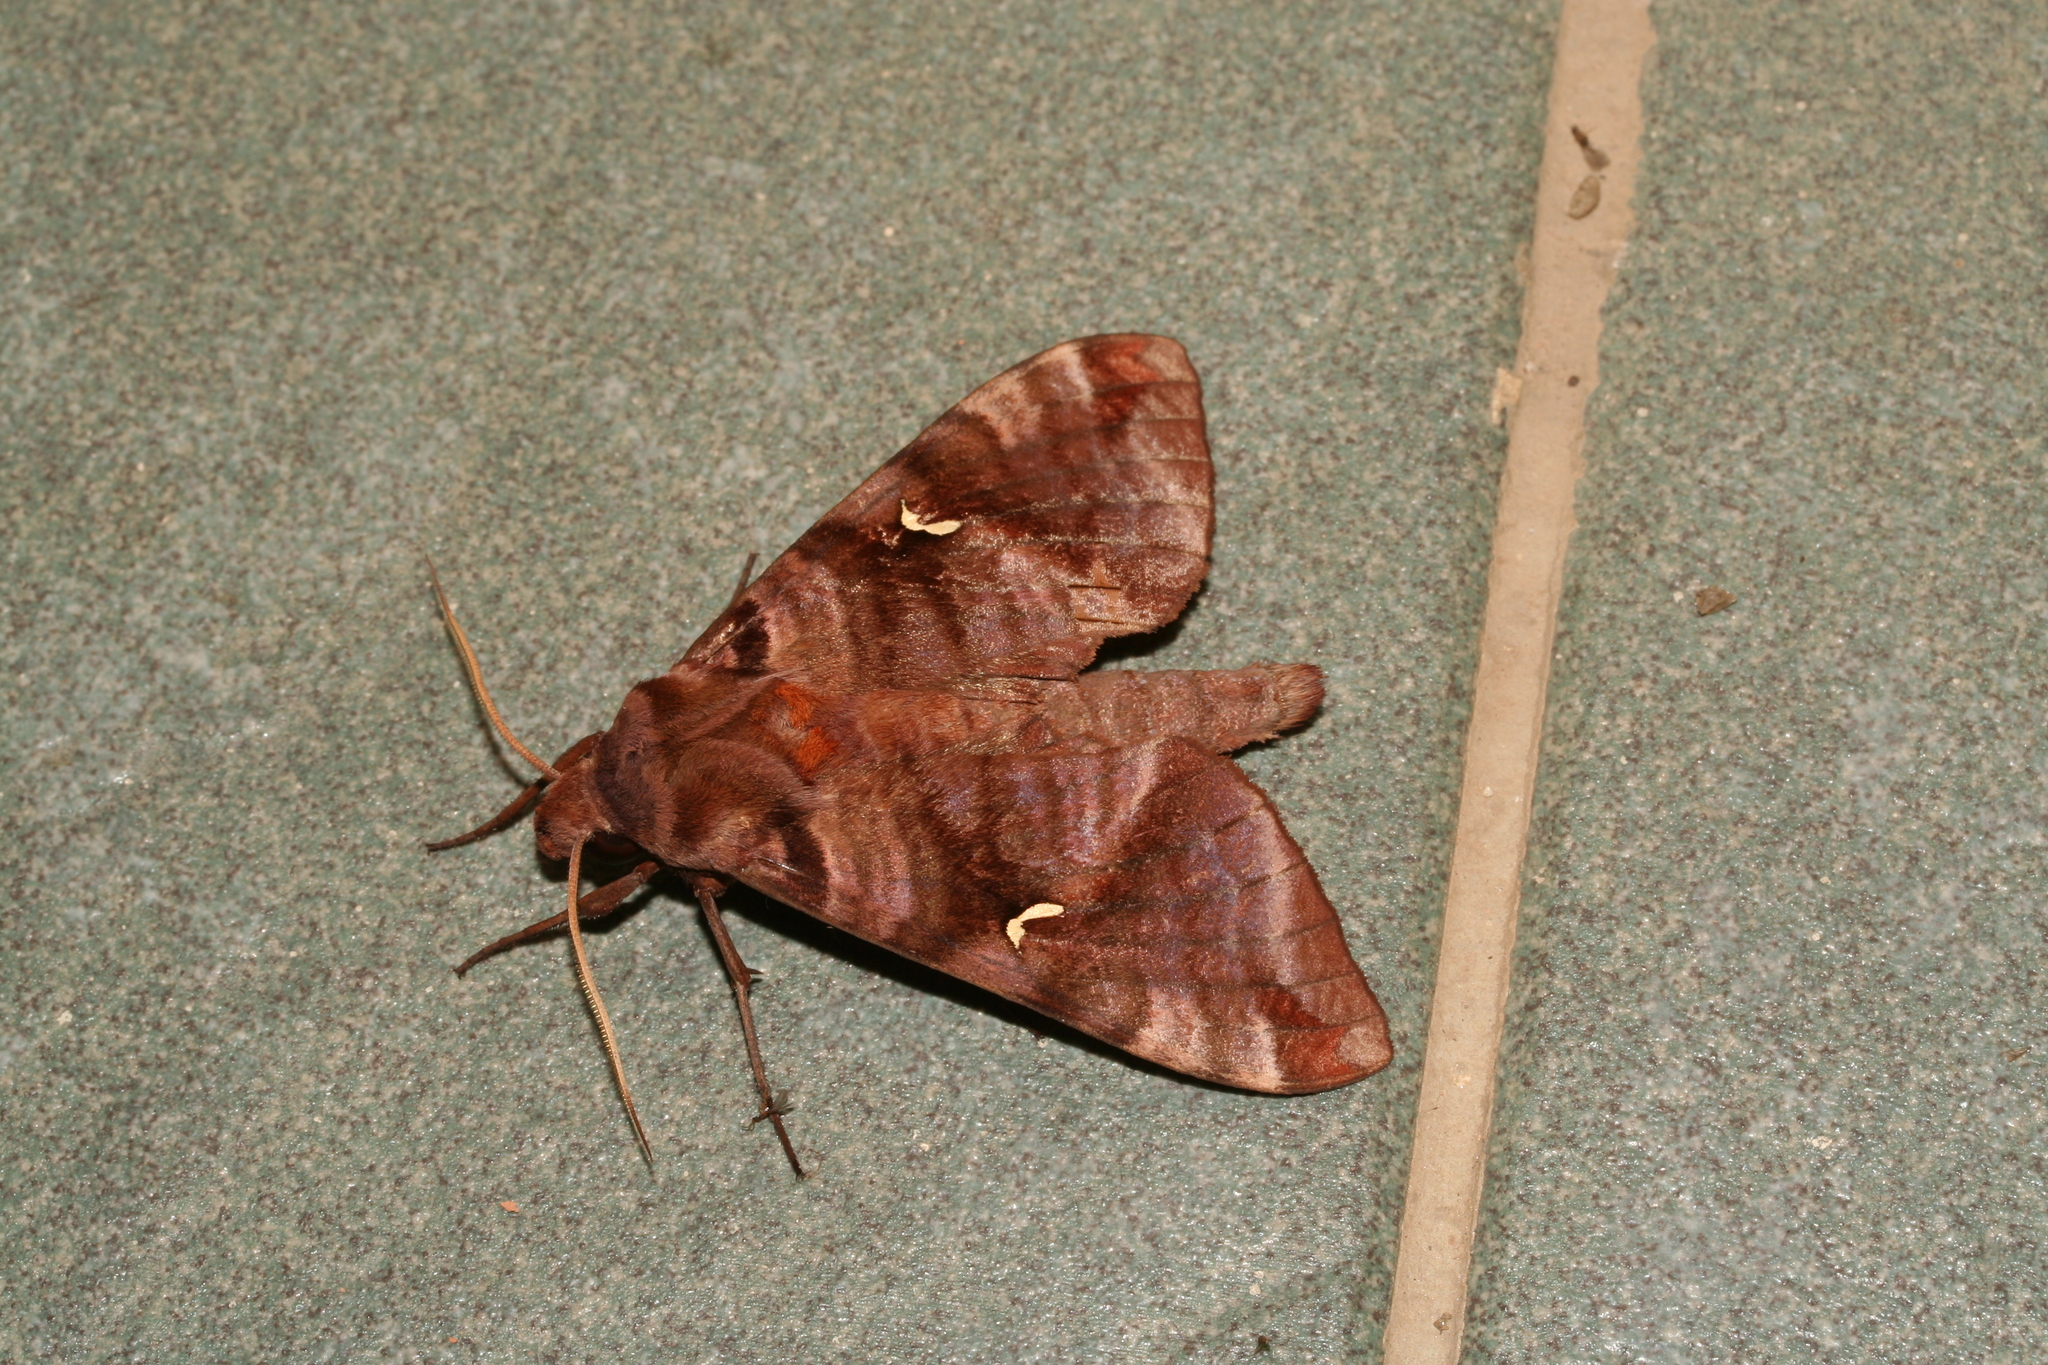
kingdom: Animalia
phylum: Arthropoda
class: Insecta
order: Lepidoptera
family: Sphingidae
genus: Maassenia
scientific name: Maassenia heydeni
